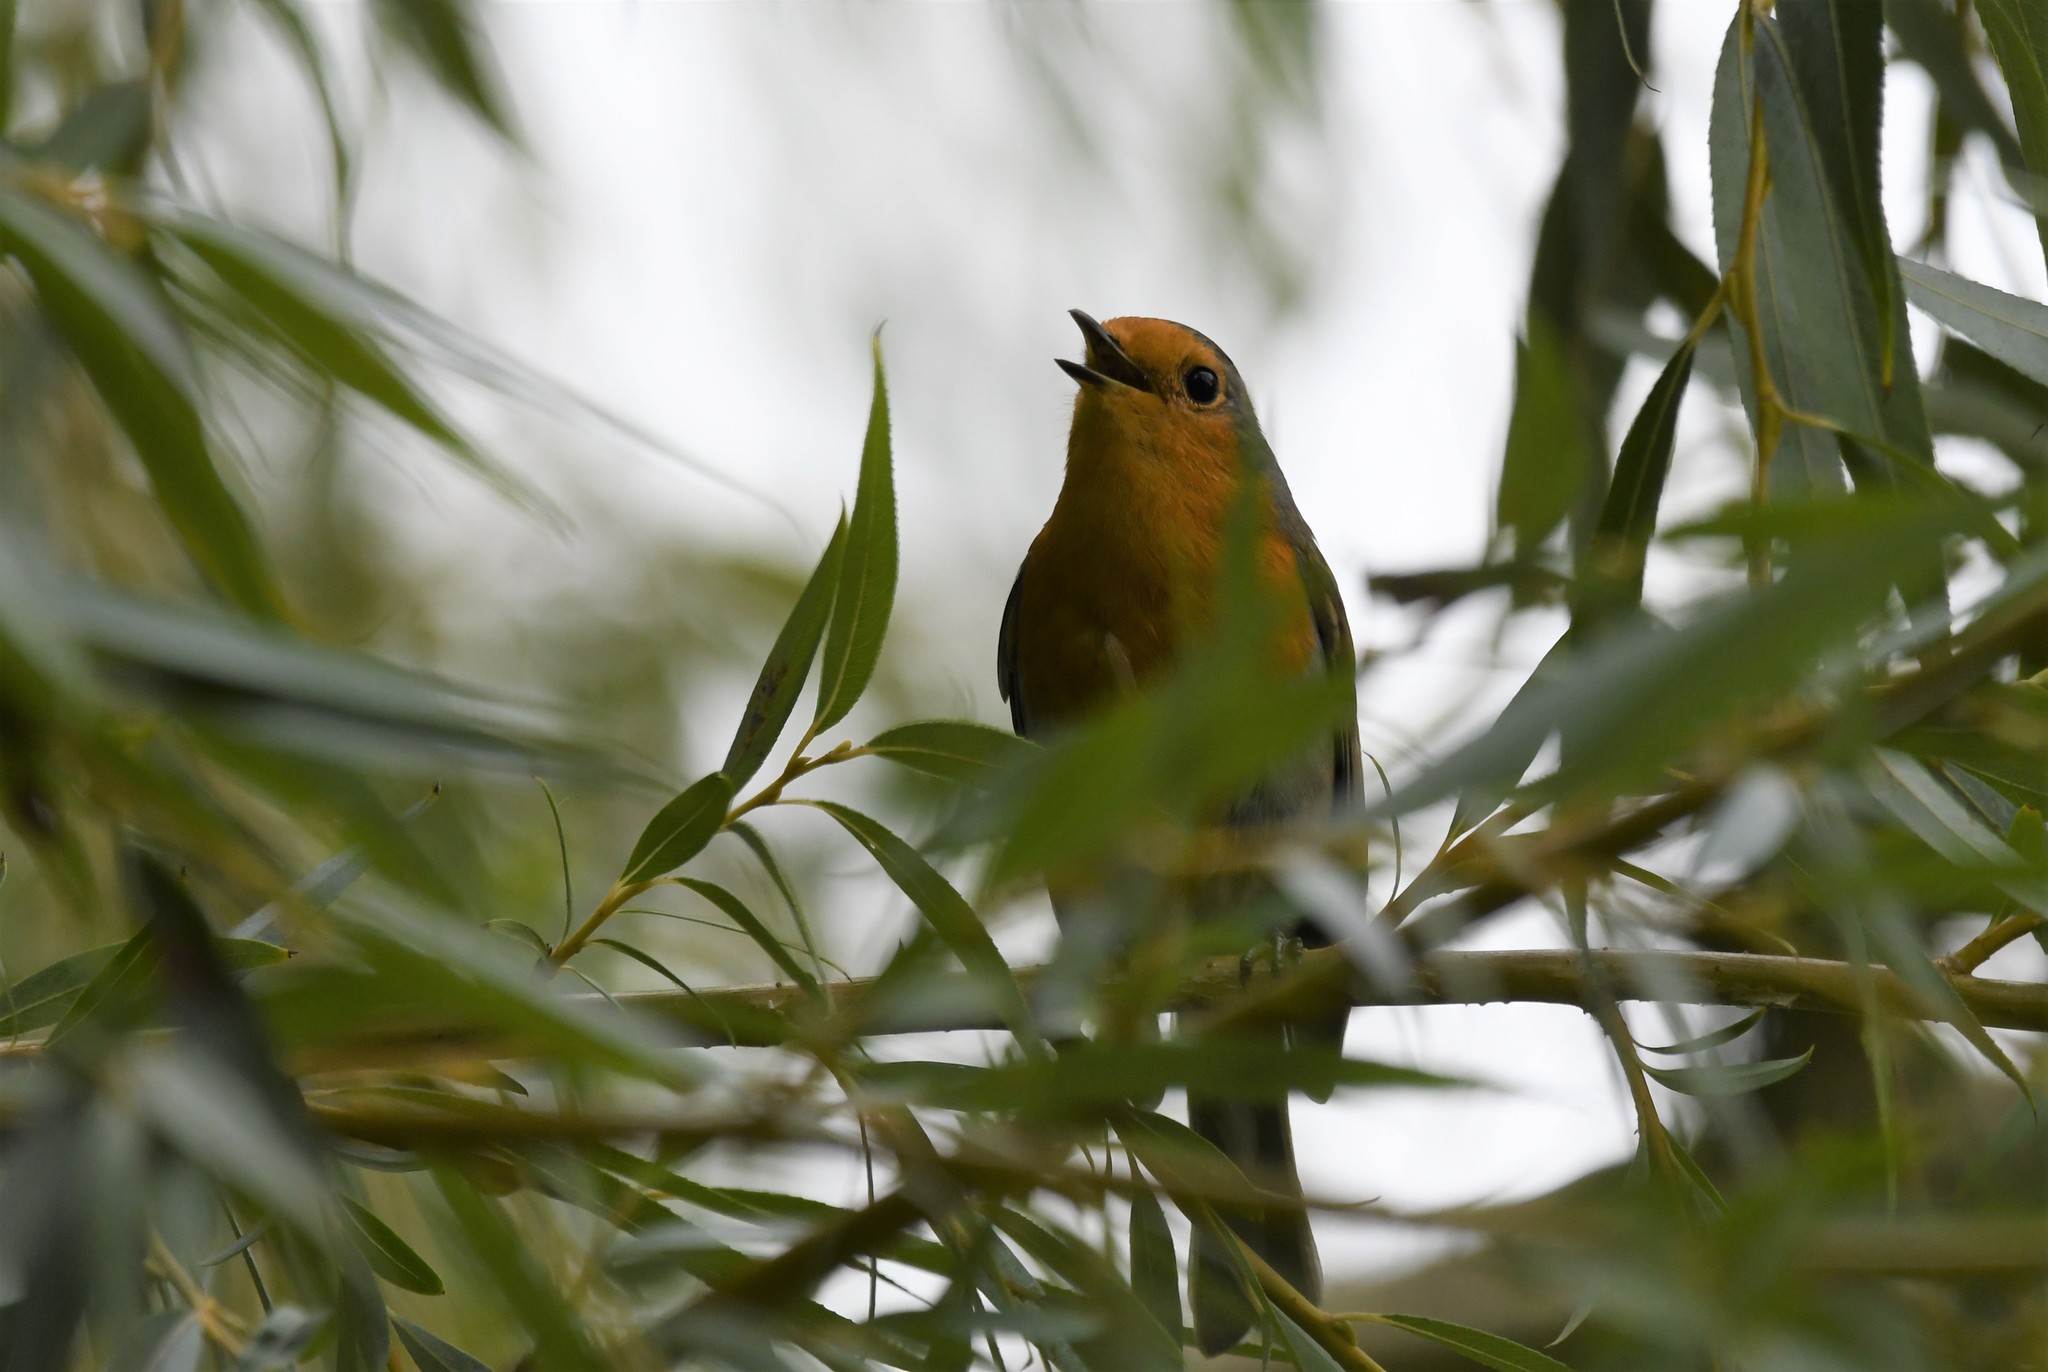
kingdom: Animalia
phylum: Chordata
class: Aves
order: Passeriformes
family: Muscicapidae
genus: Erithacus
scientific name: Erithacus rubecula
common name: European robin
